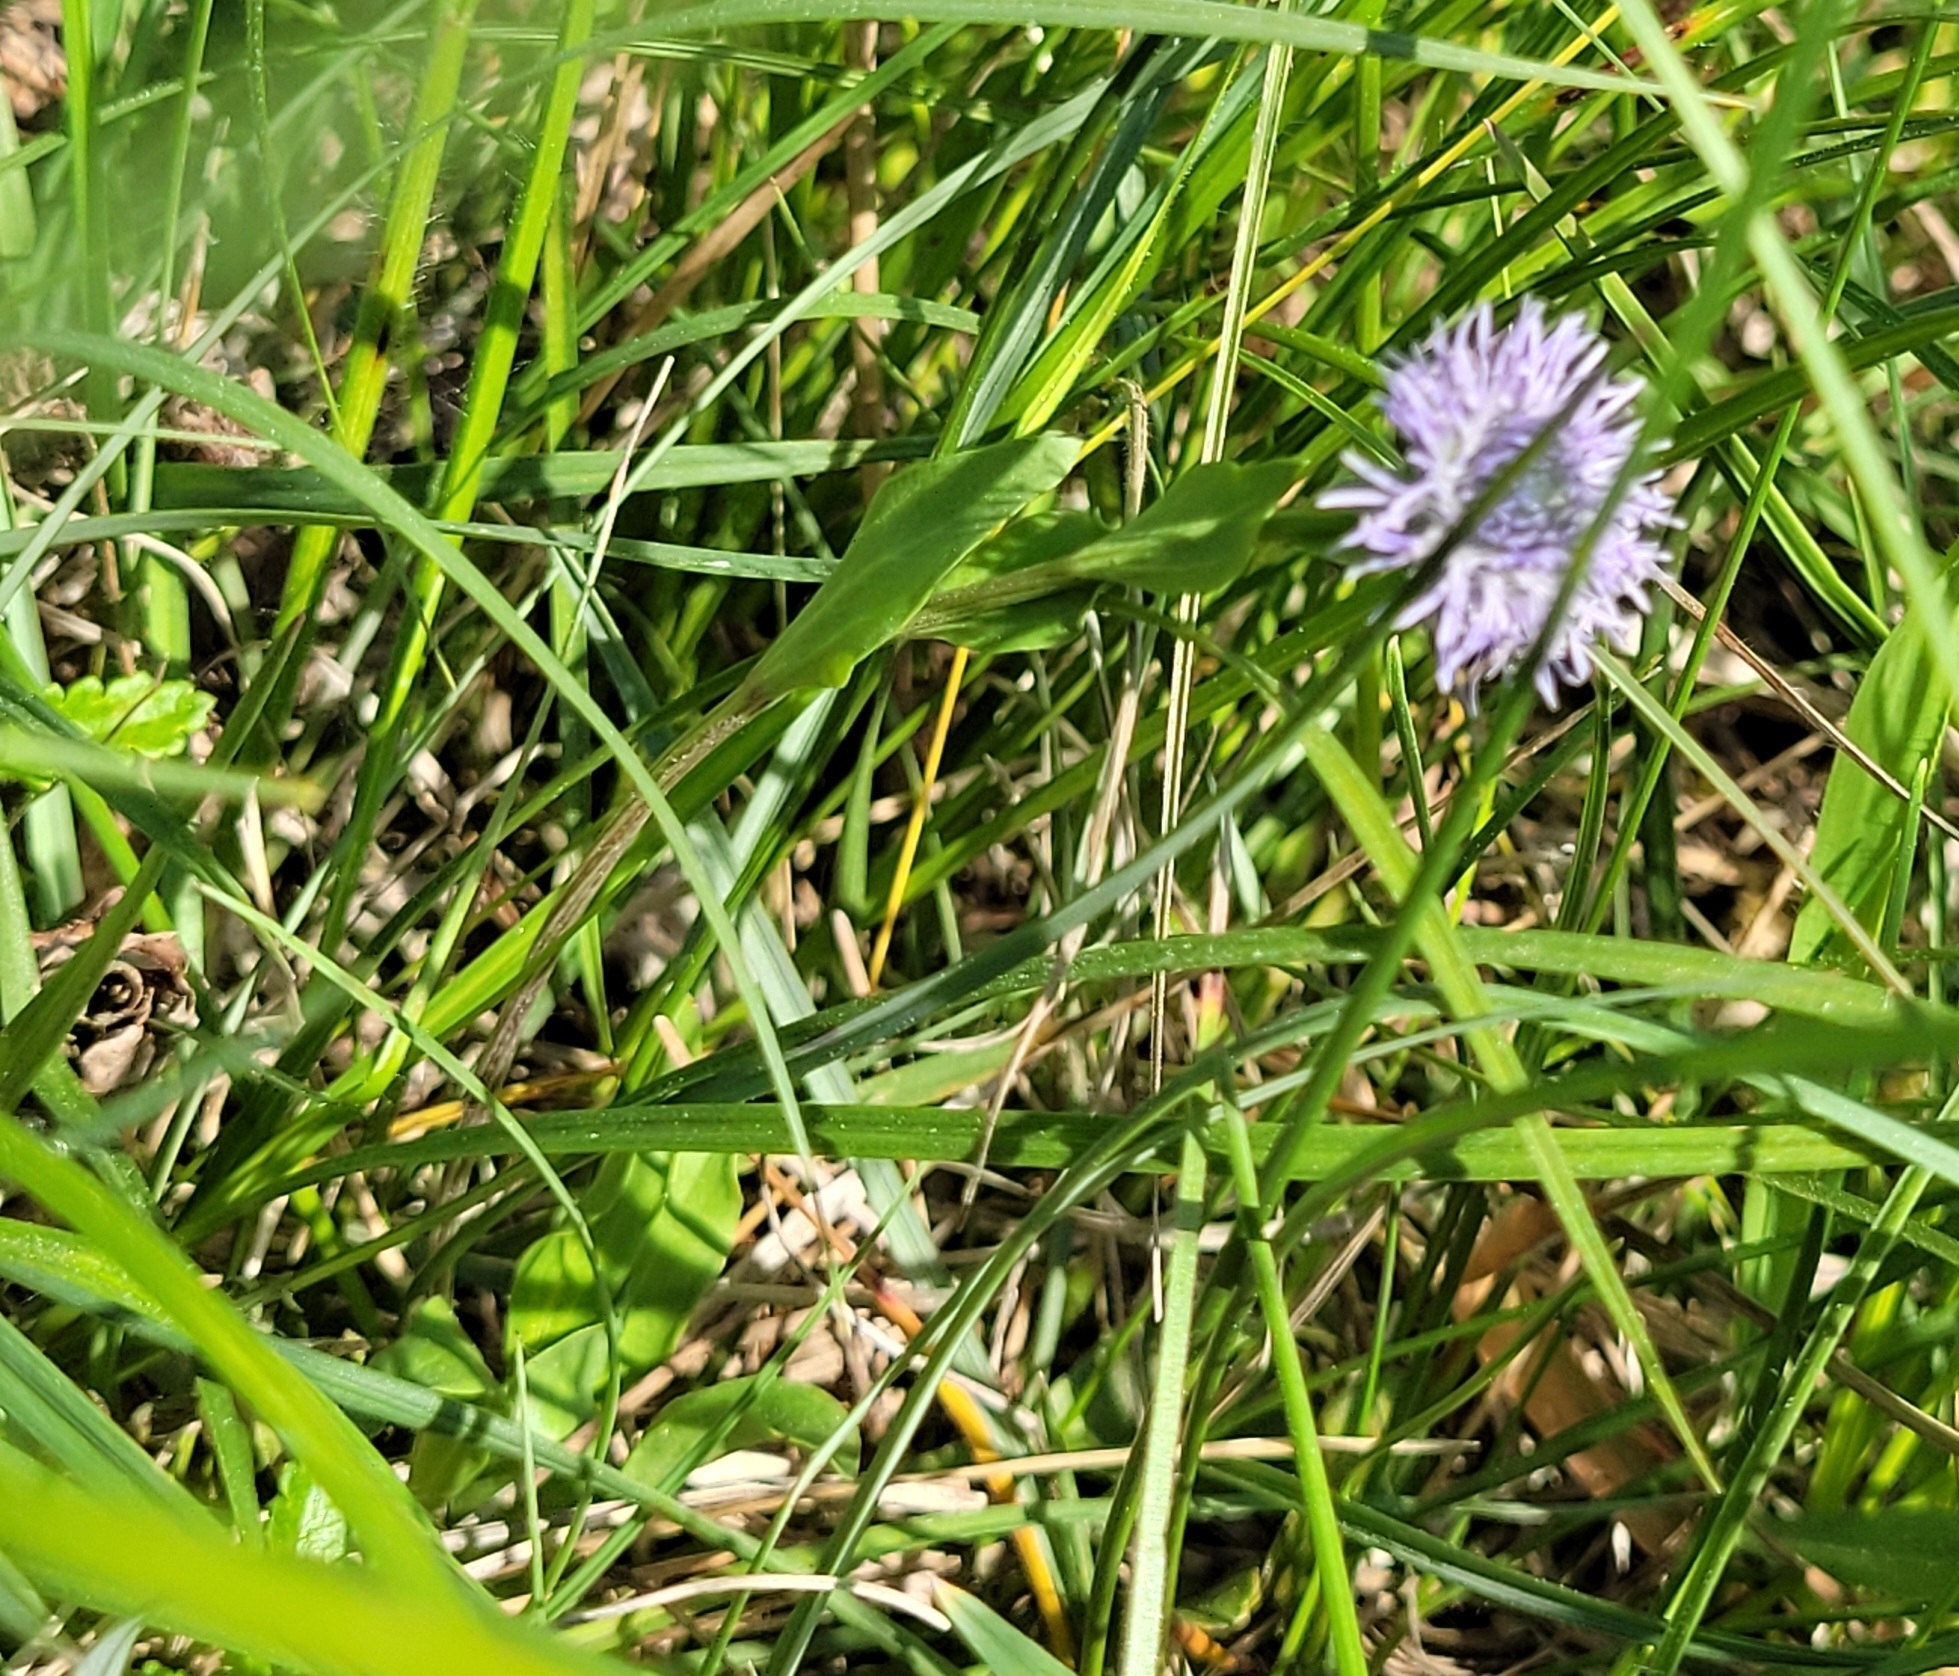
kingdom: Plantae
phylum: Tracheophyta
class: Magnoliopsida
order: Lamiales
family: Plantaginaceae
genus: Globularia
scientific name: Globularia bisnagarica
